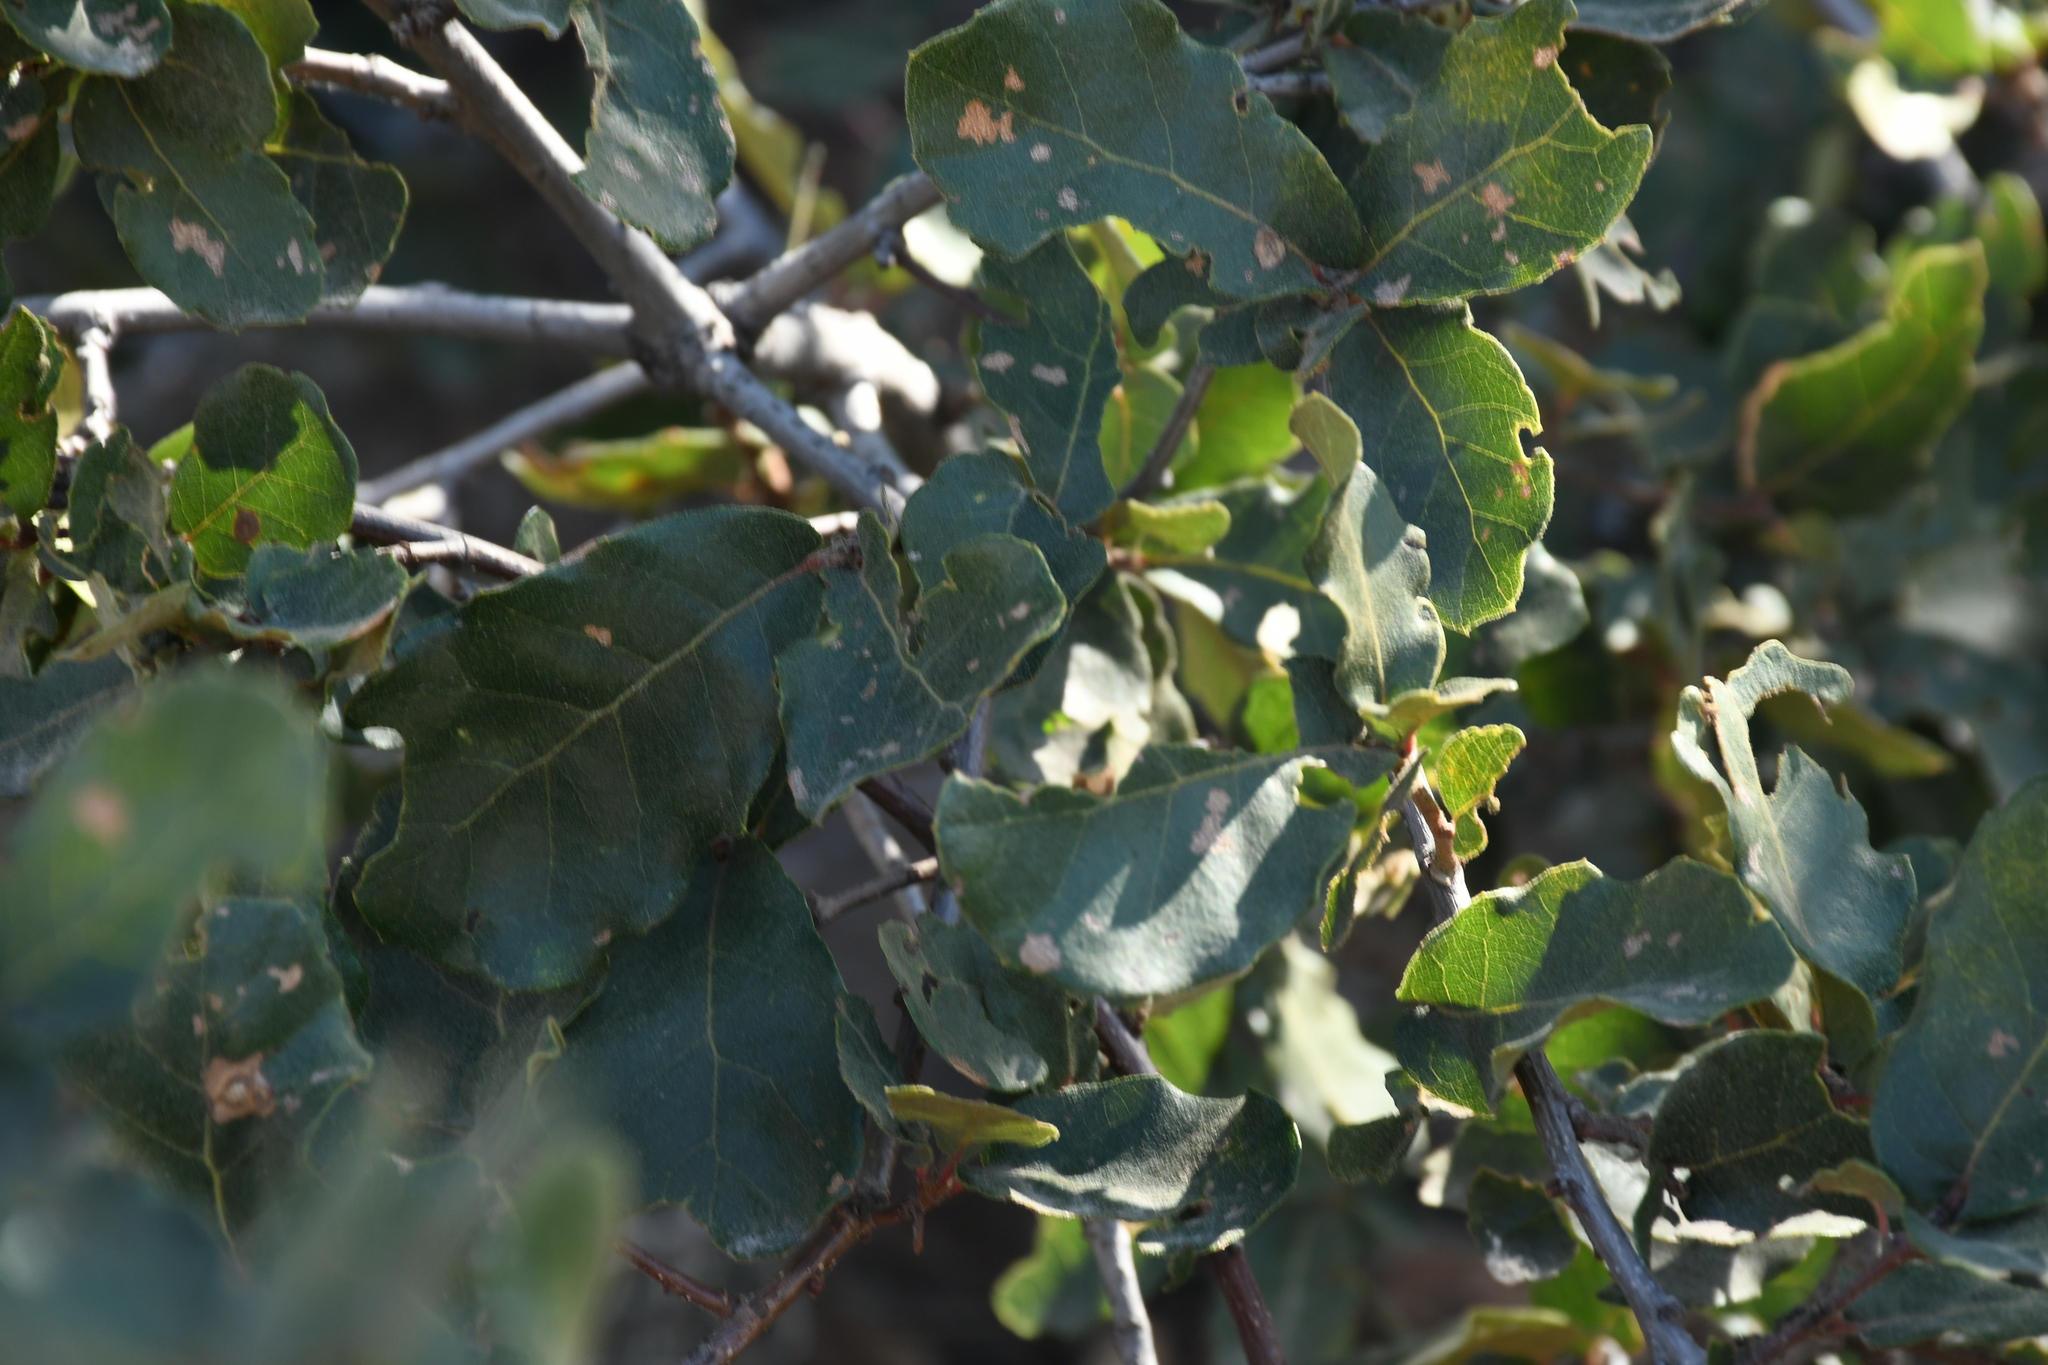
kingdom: Plantae
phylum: Tracheophyta
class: Magnoliopsida
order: Fagales
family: Fagaceae
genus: Quercus
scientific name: Quercus potosina
